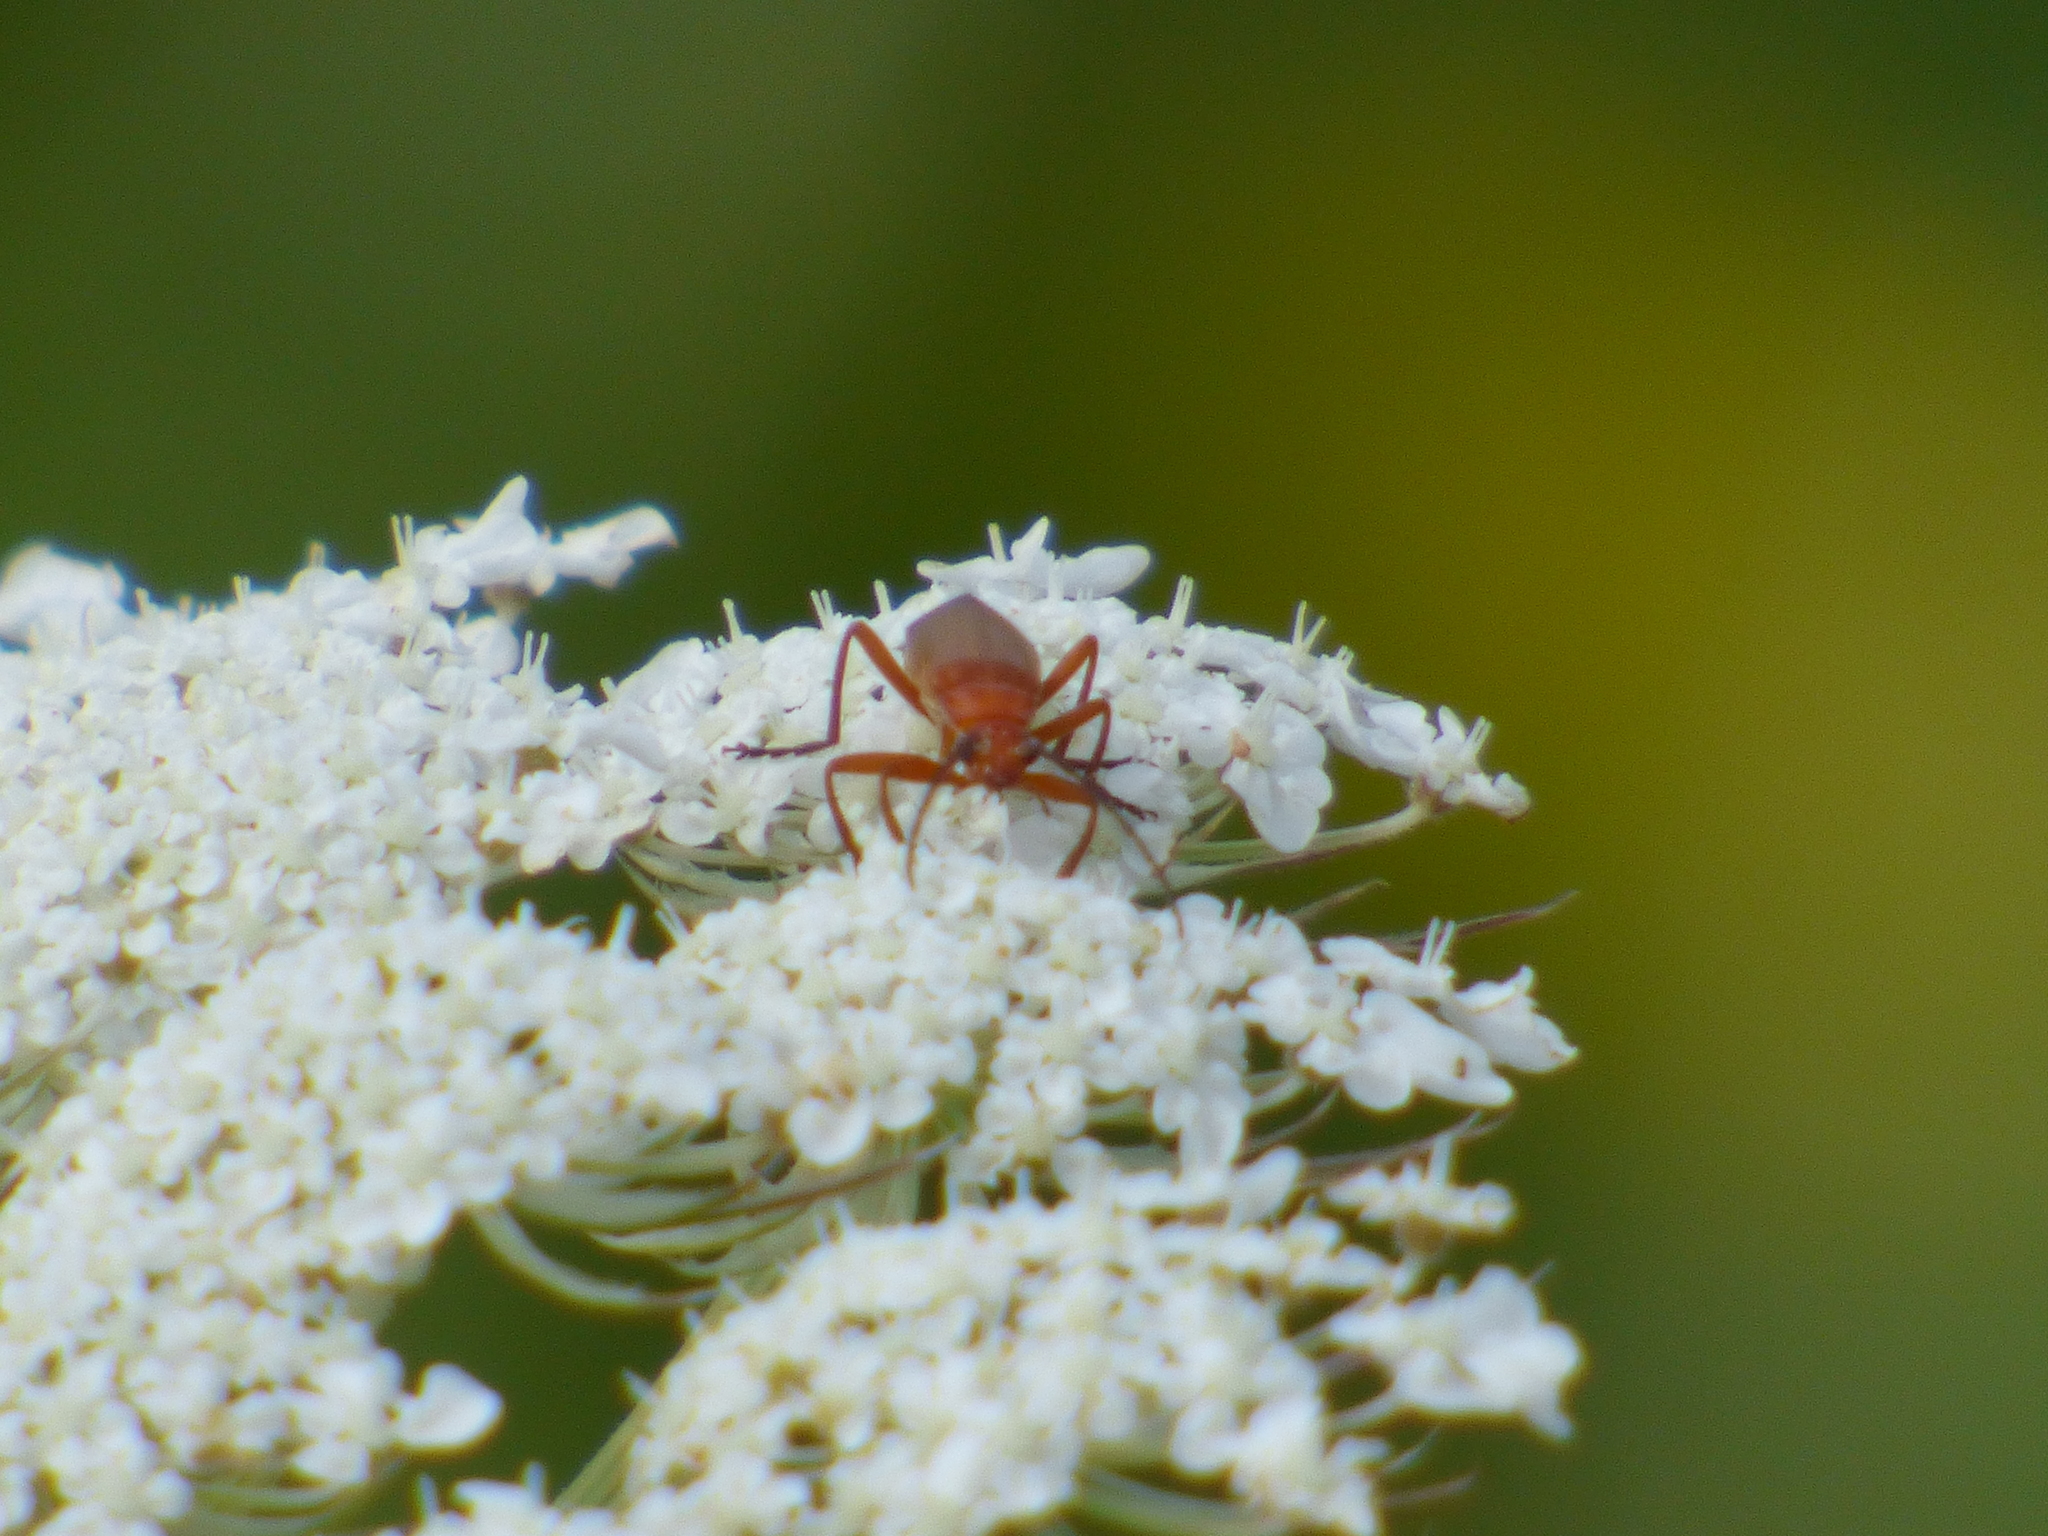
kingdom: Animalia
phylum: Arthropoda
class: Insecta
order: Coleoptera
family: Cantharidae
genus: Rhagonycha
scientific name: Rhagonycha fulva
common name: Common red soldier beetle
